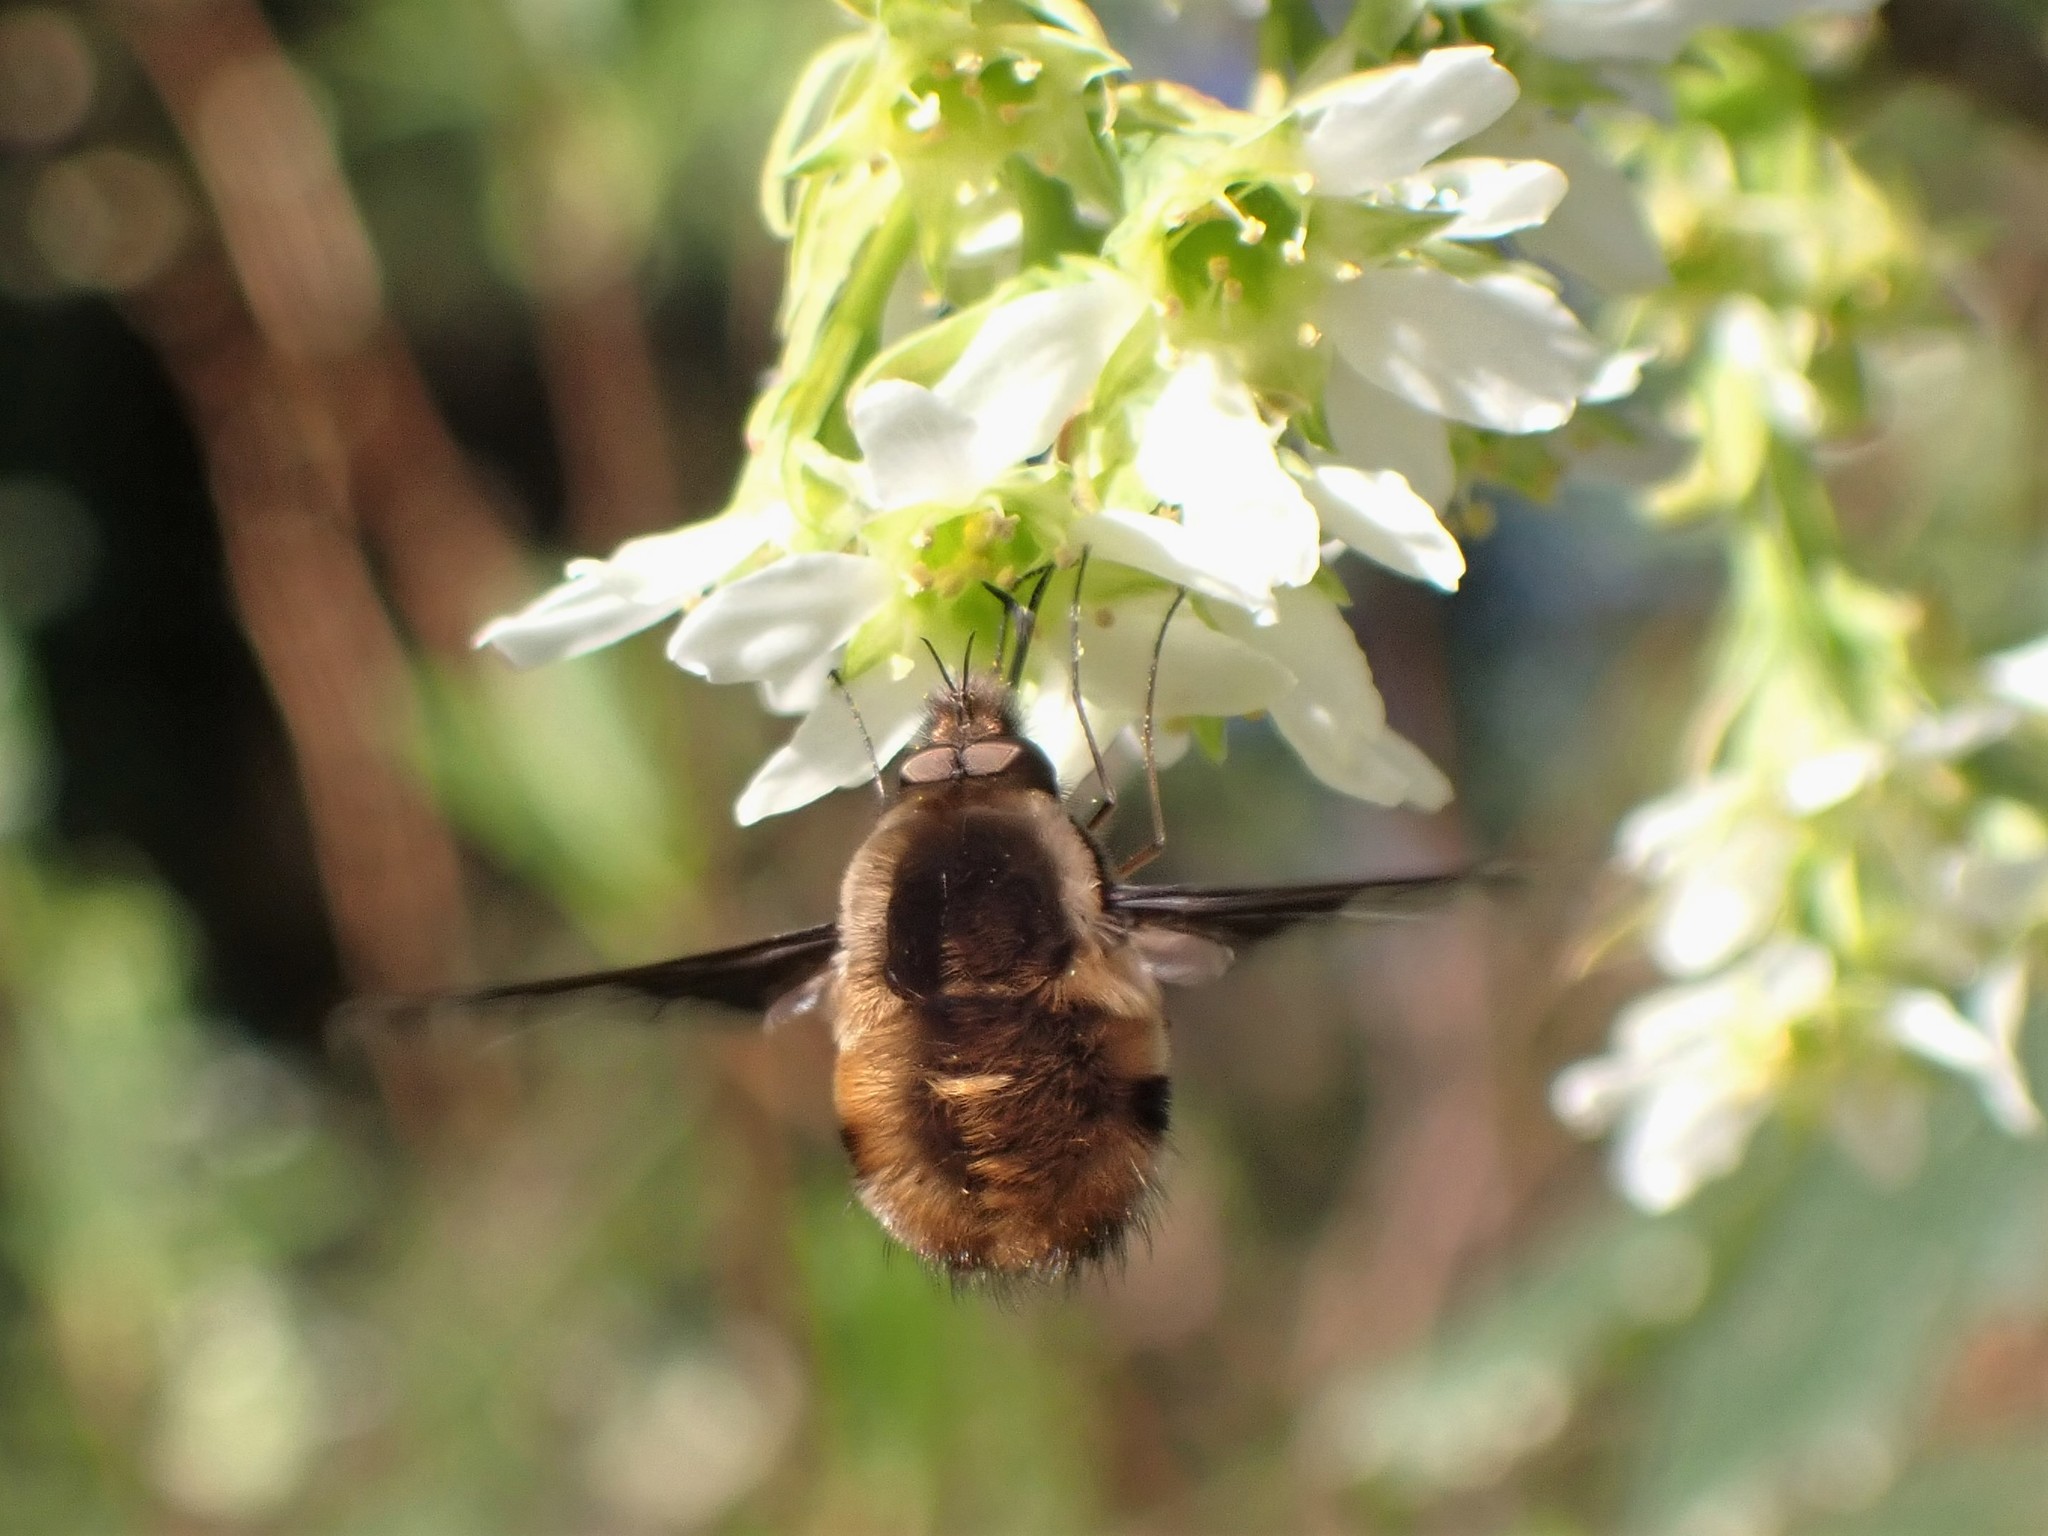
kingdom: Animalia
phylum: Arthropoda
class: Insecta
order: Diptera
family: Bombyliidae
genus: Bombylius
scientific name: Bombylius major
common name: Bee fly
